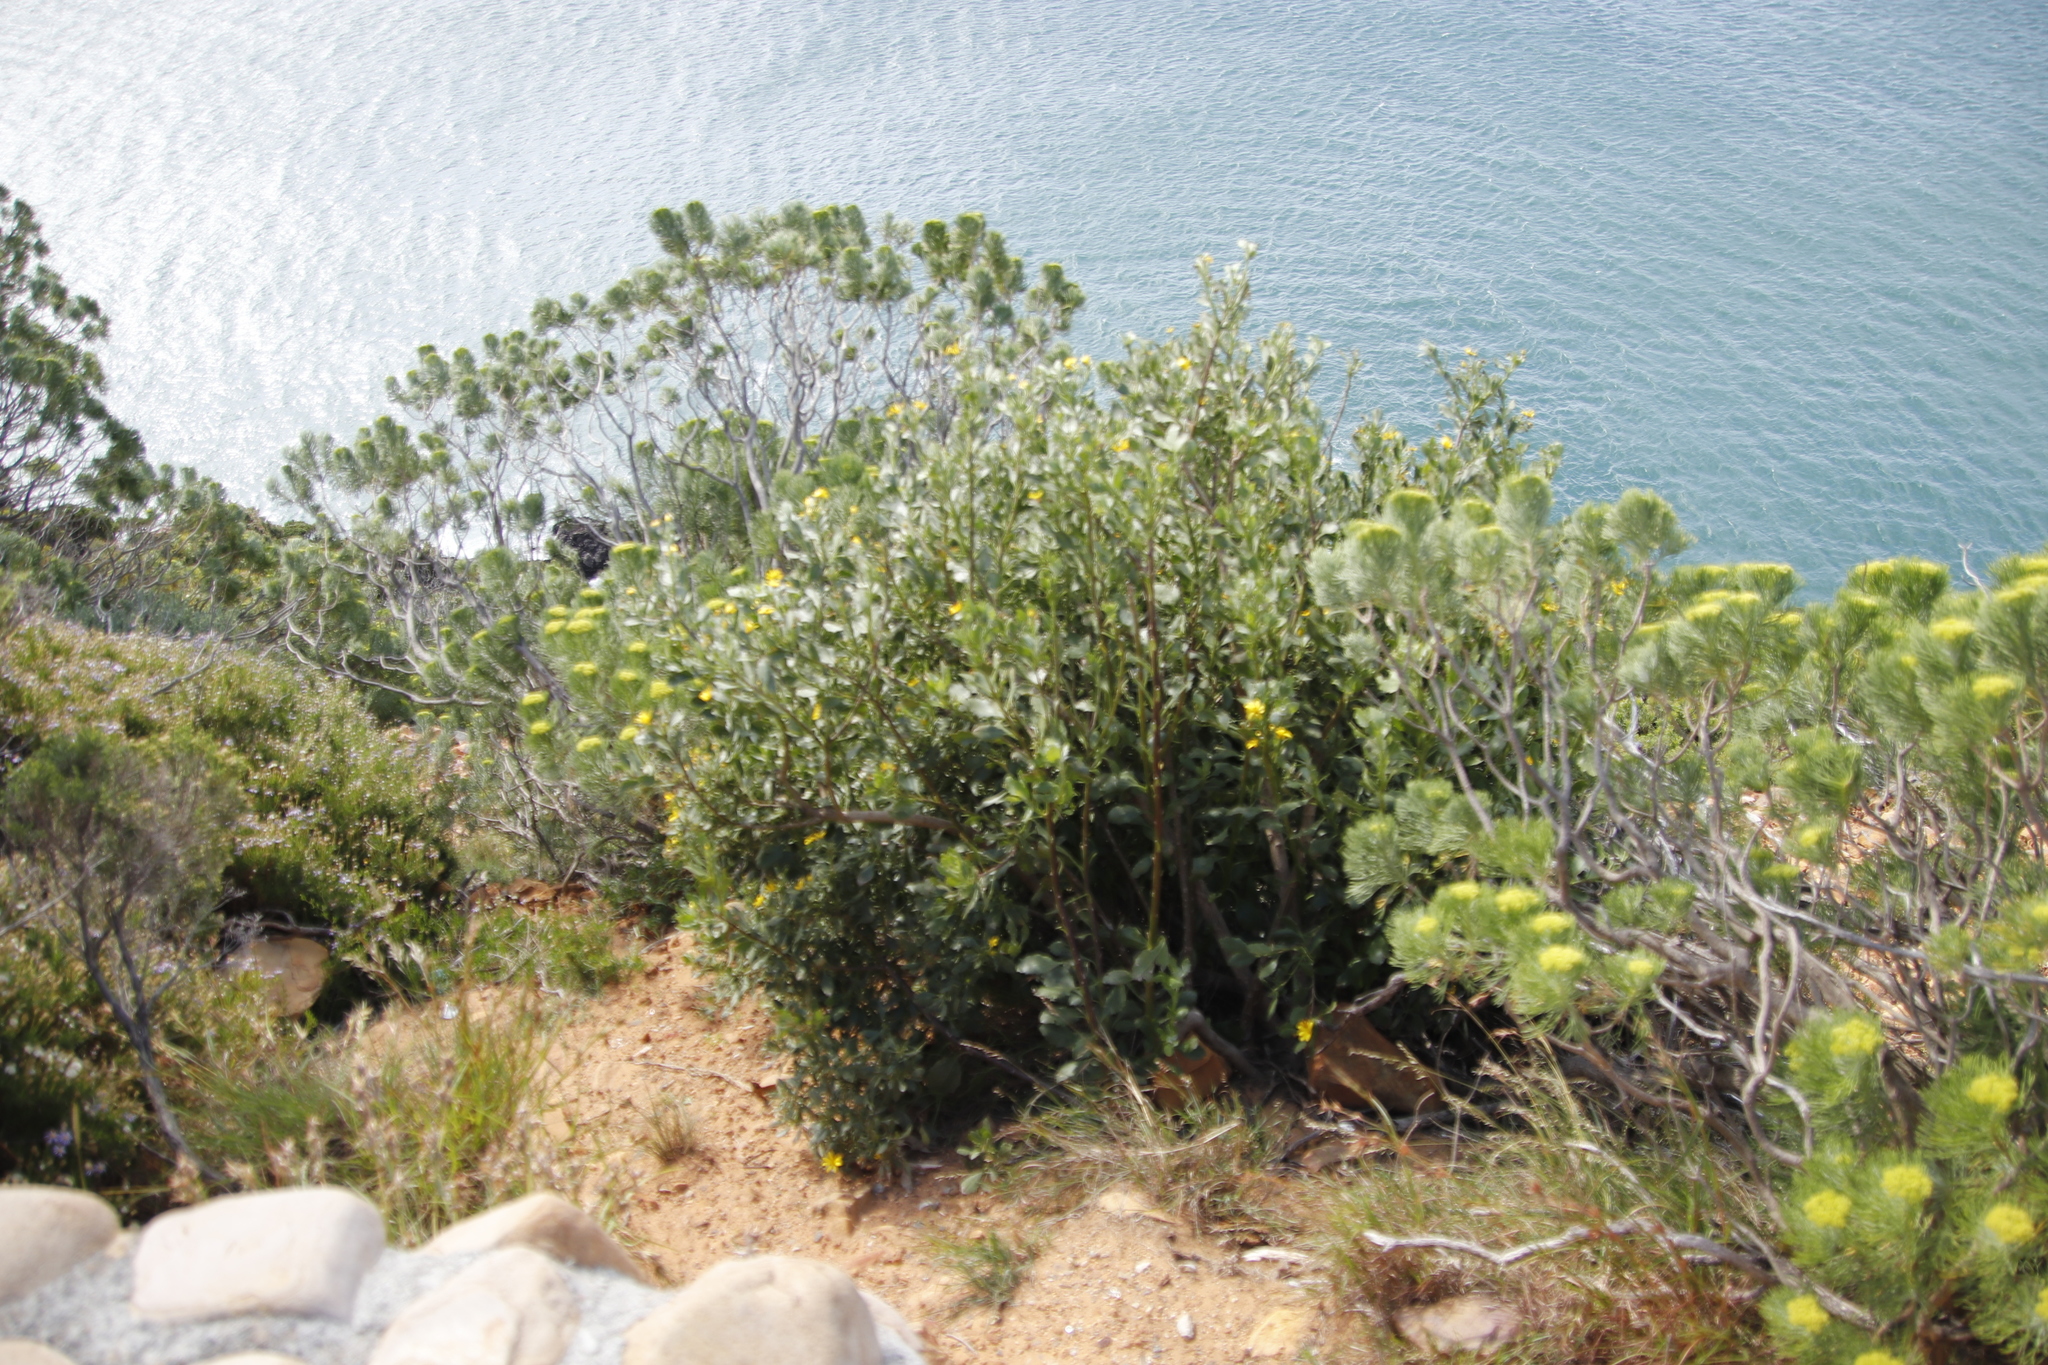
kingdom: Plantae
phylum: Tracheophyta
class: Magnoliopsida
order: Asterales
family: Asteraceae
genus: Osteospermum
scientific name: Osteospermum moniliferum
